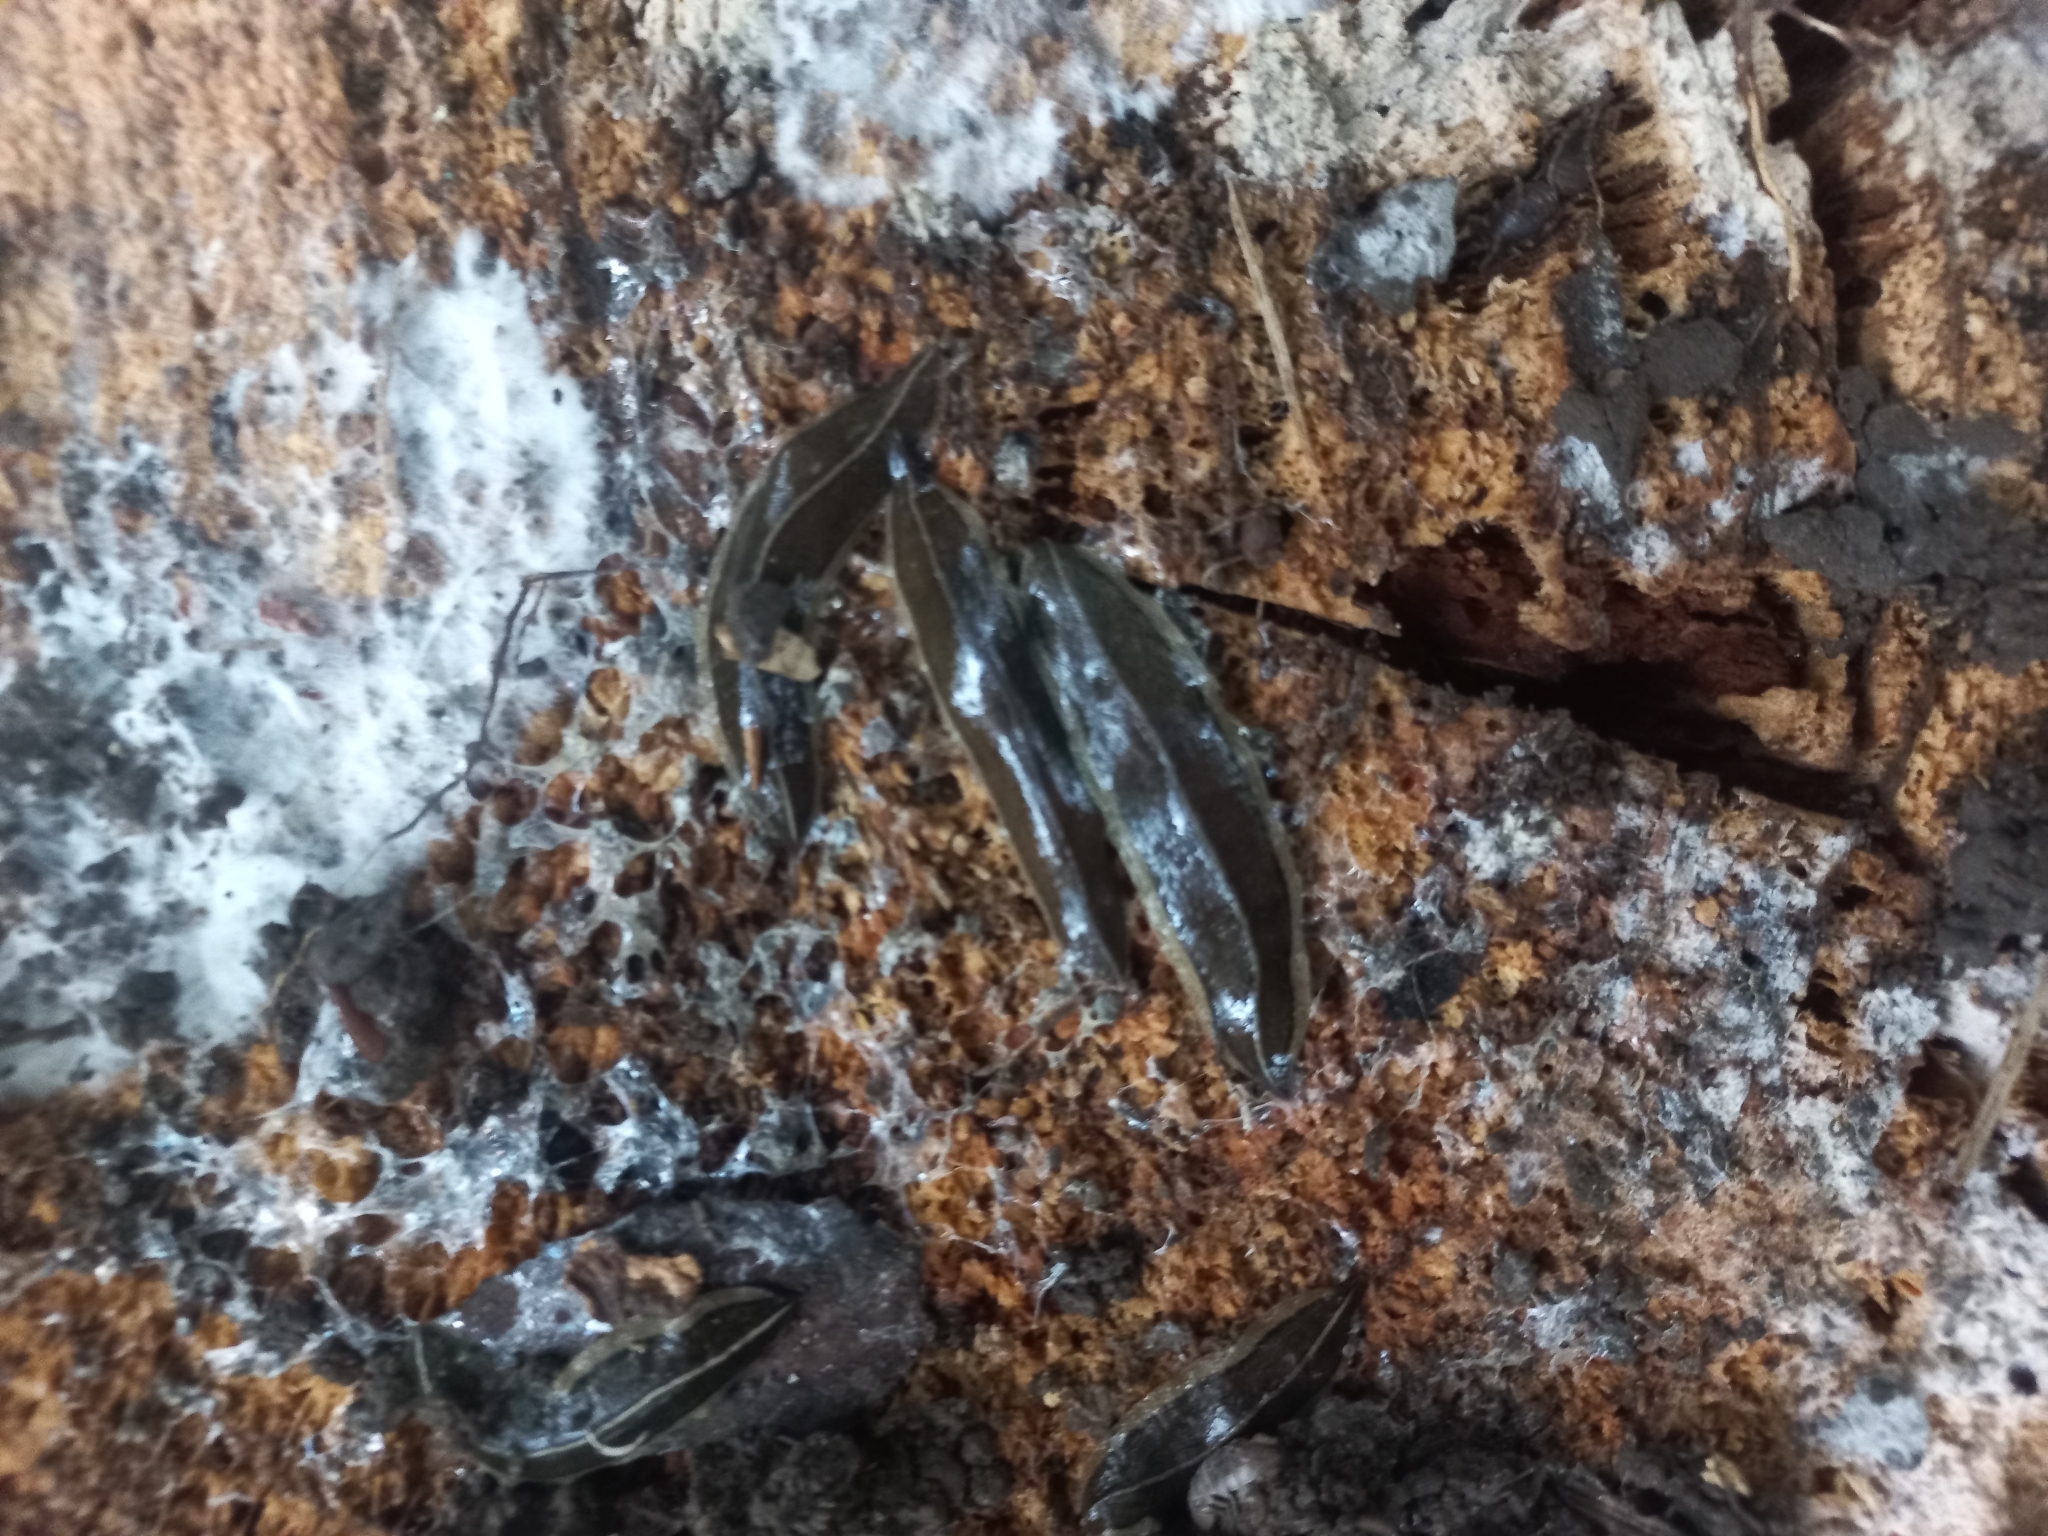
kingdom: Animalia
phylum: Platyhelminthes
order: Tricladida
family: Geoplanidae
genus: Newzealandia
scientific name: Newzealandia graffii
